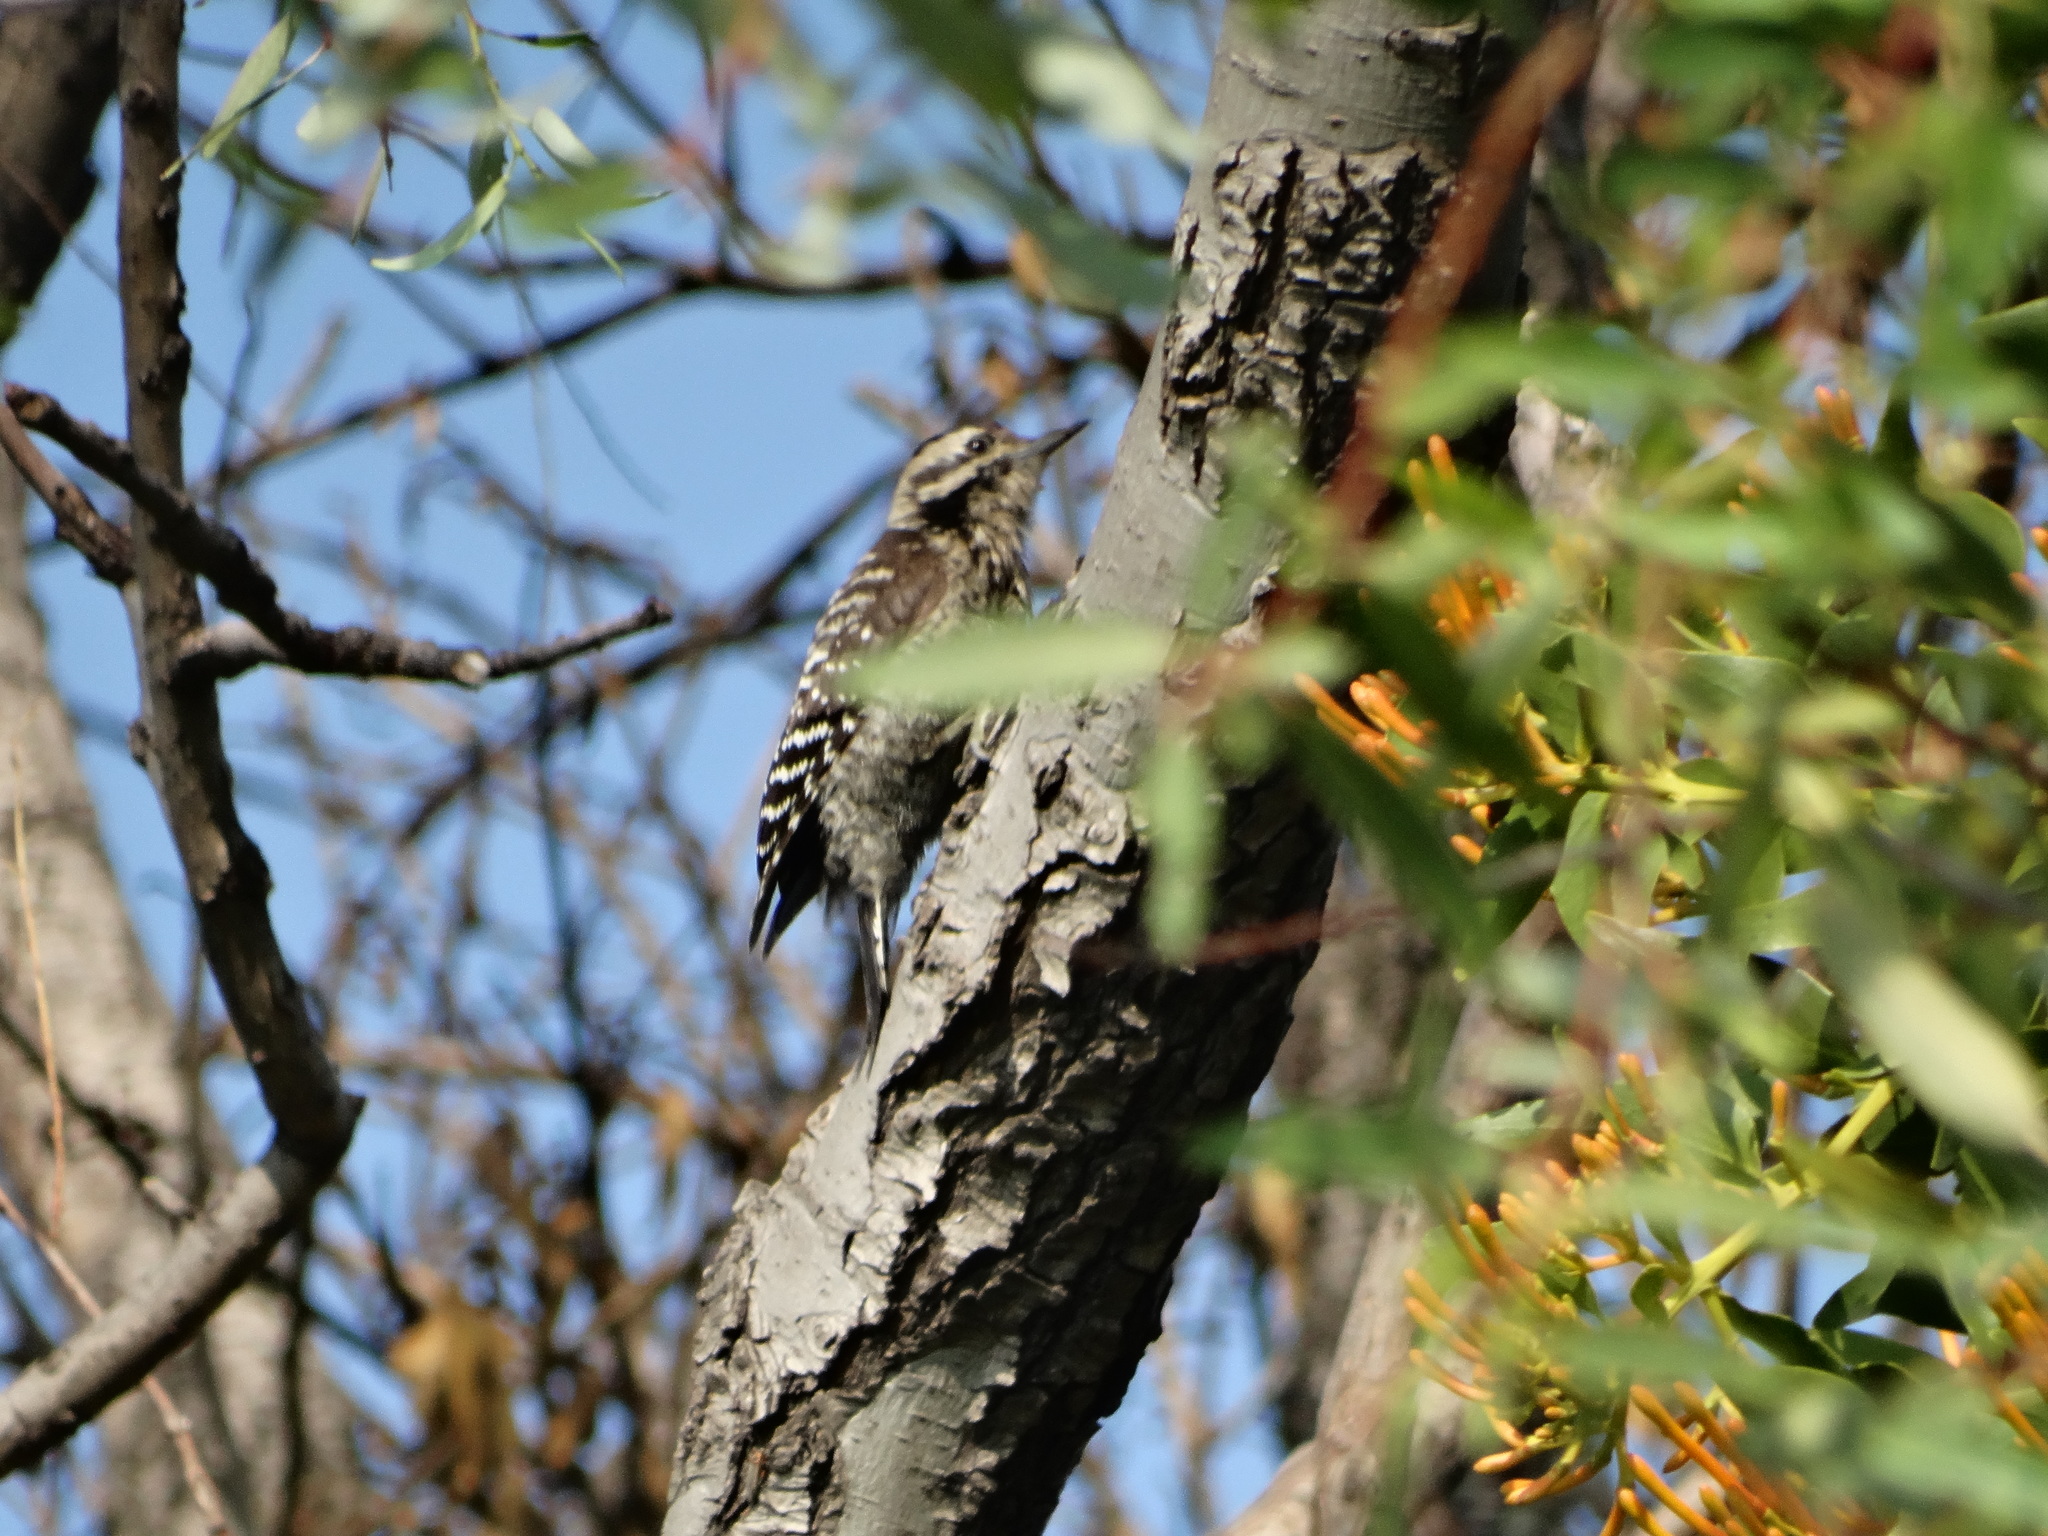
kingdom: Animalia
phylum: Chordata
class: Aves
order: Piciformes
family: Picidae
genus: Dryobates
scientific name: Dryobates scalaris
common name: Ladder-backed woodpecker
